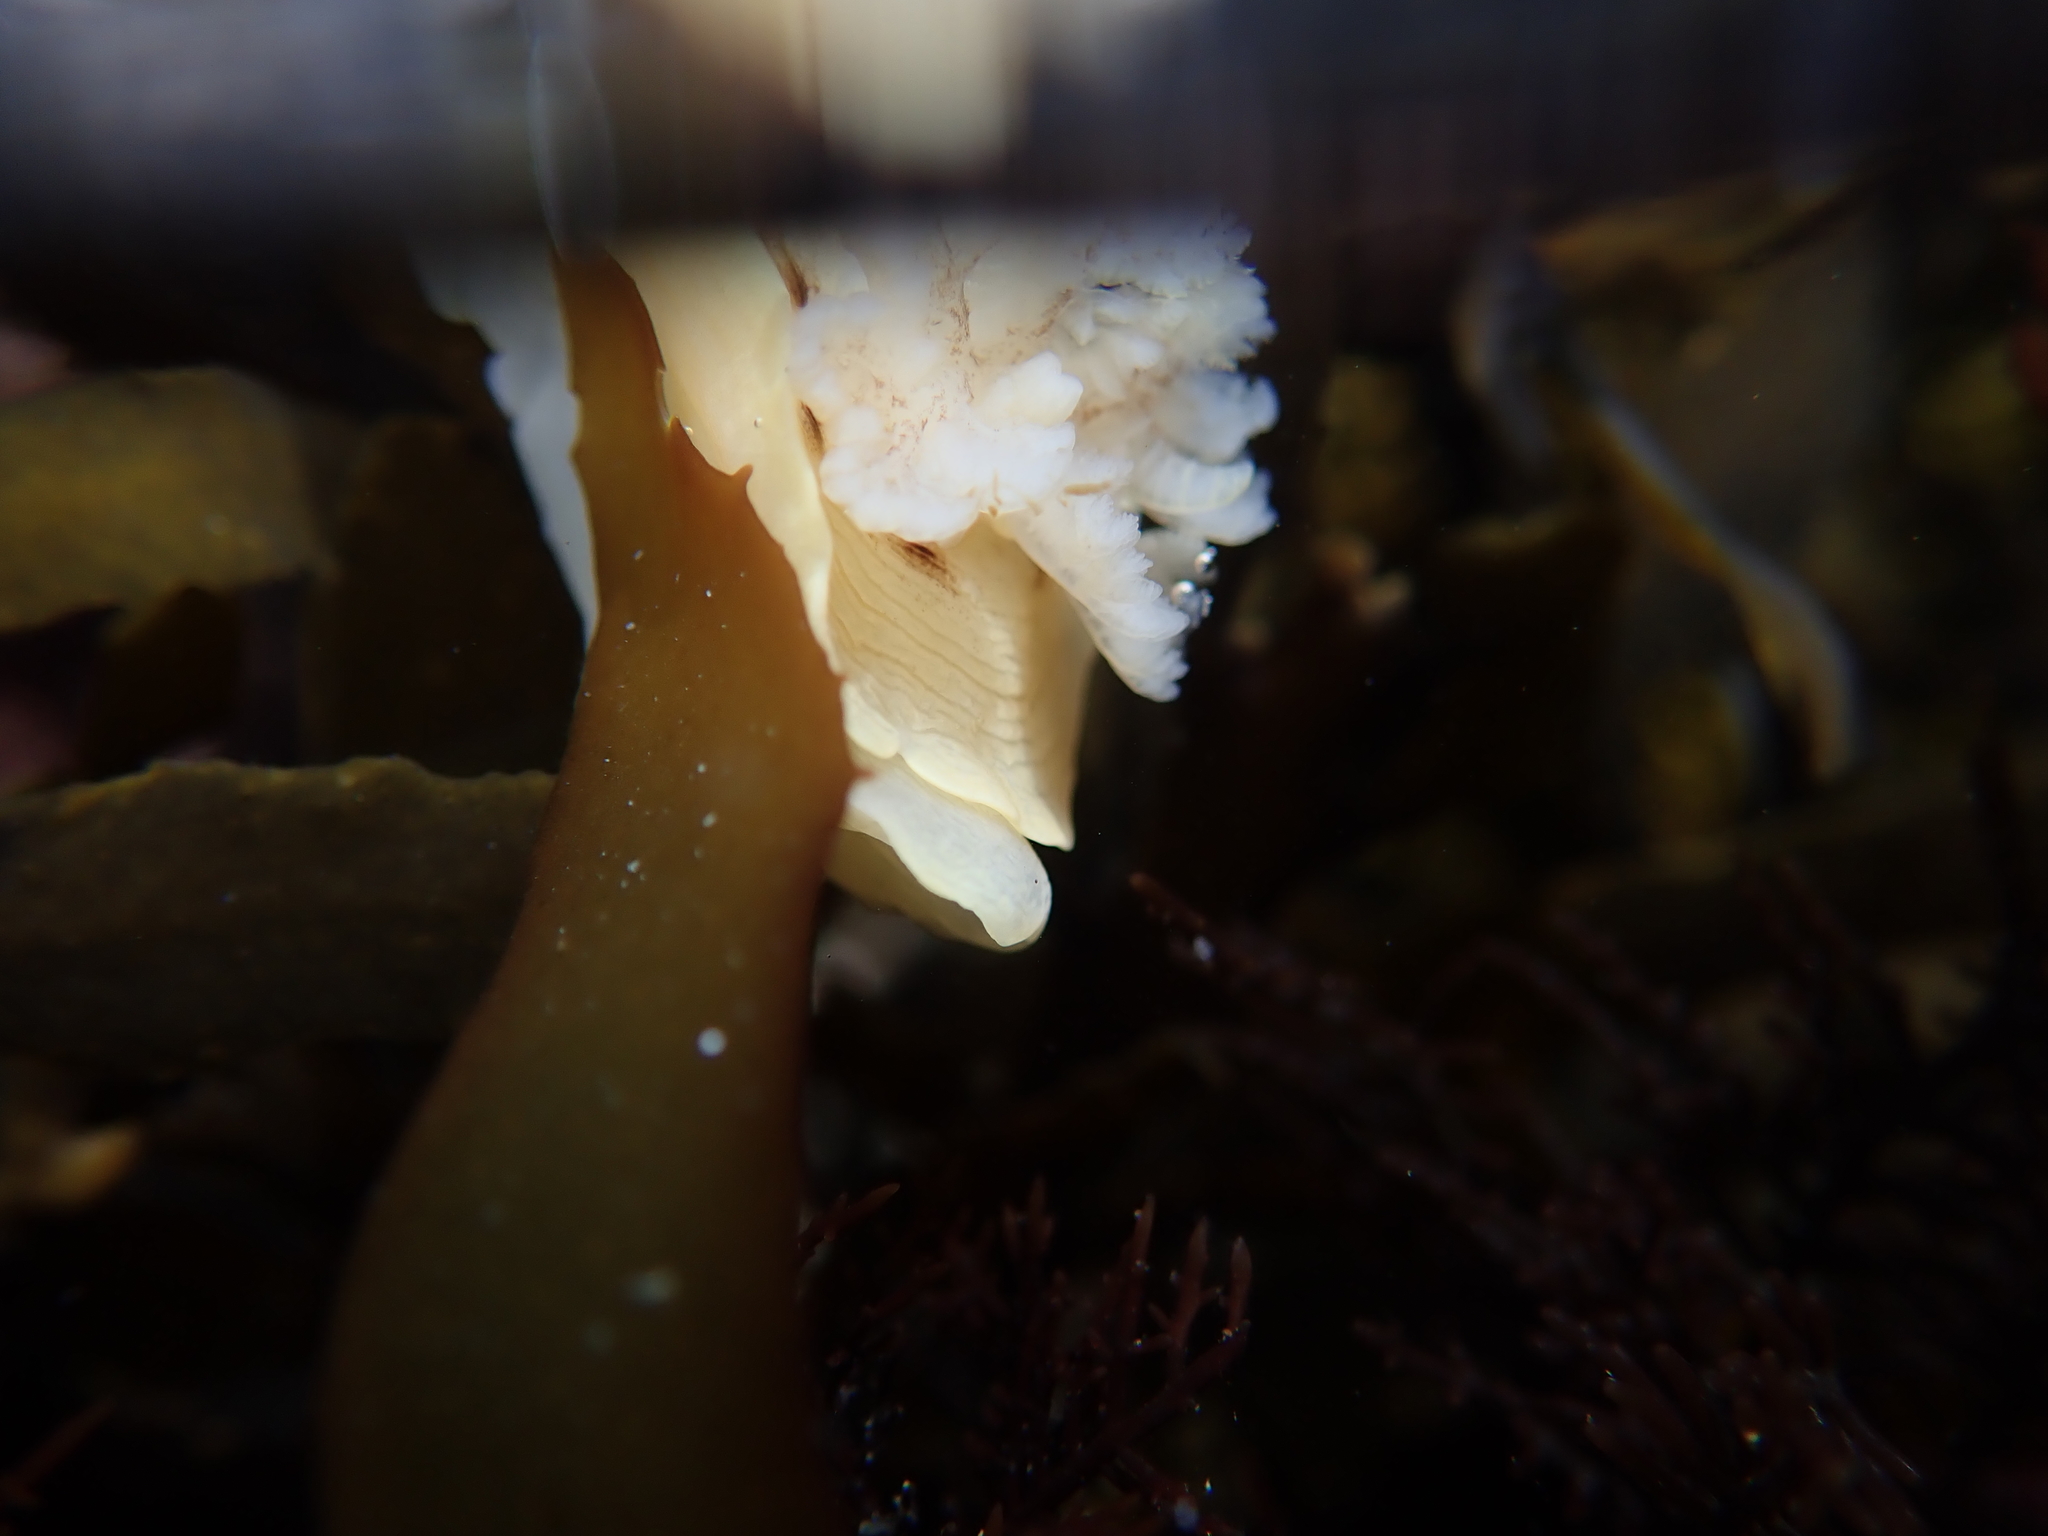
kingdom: Animalia
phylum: Mollusca
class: Gastropoda
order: Nudibranchia
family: Dorididae
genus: Aphelodoris
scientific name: Aphelodoris luctuosa
